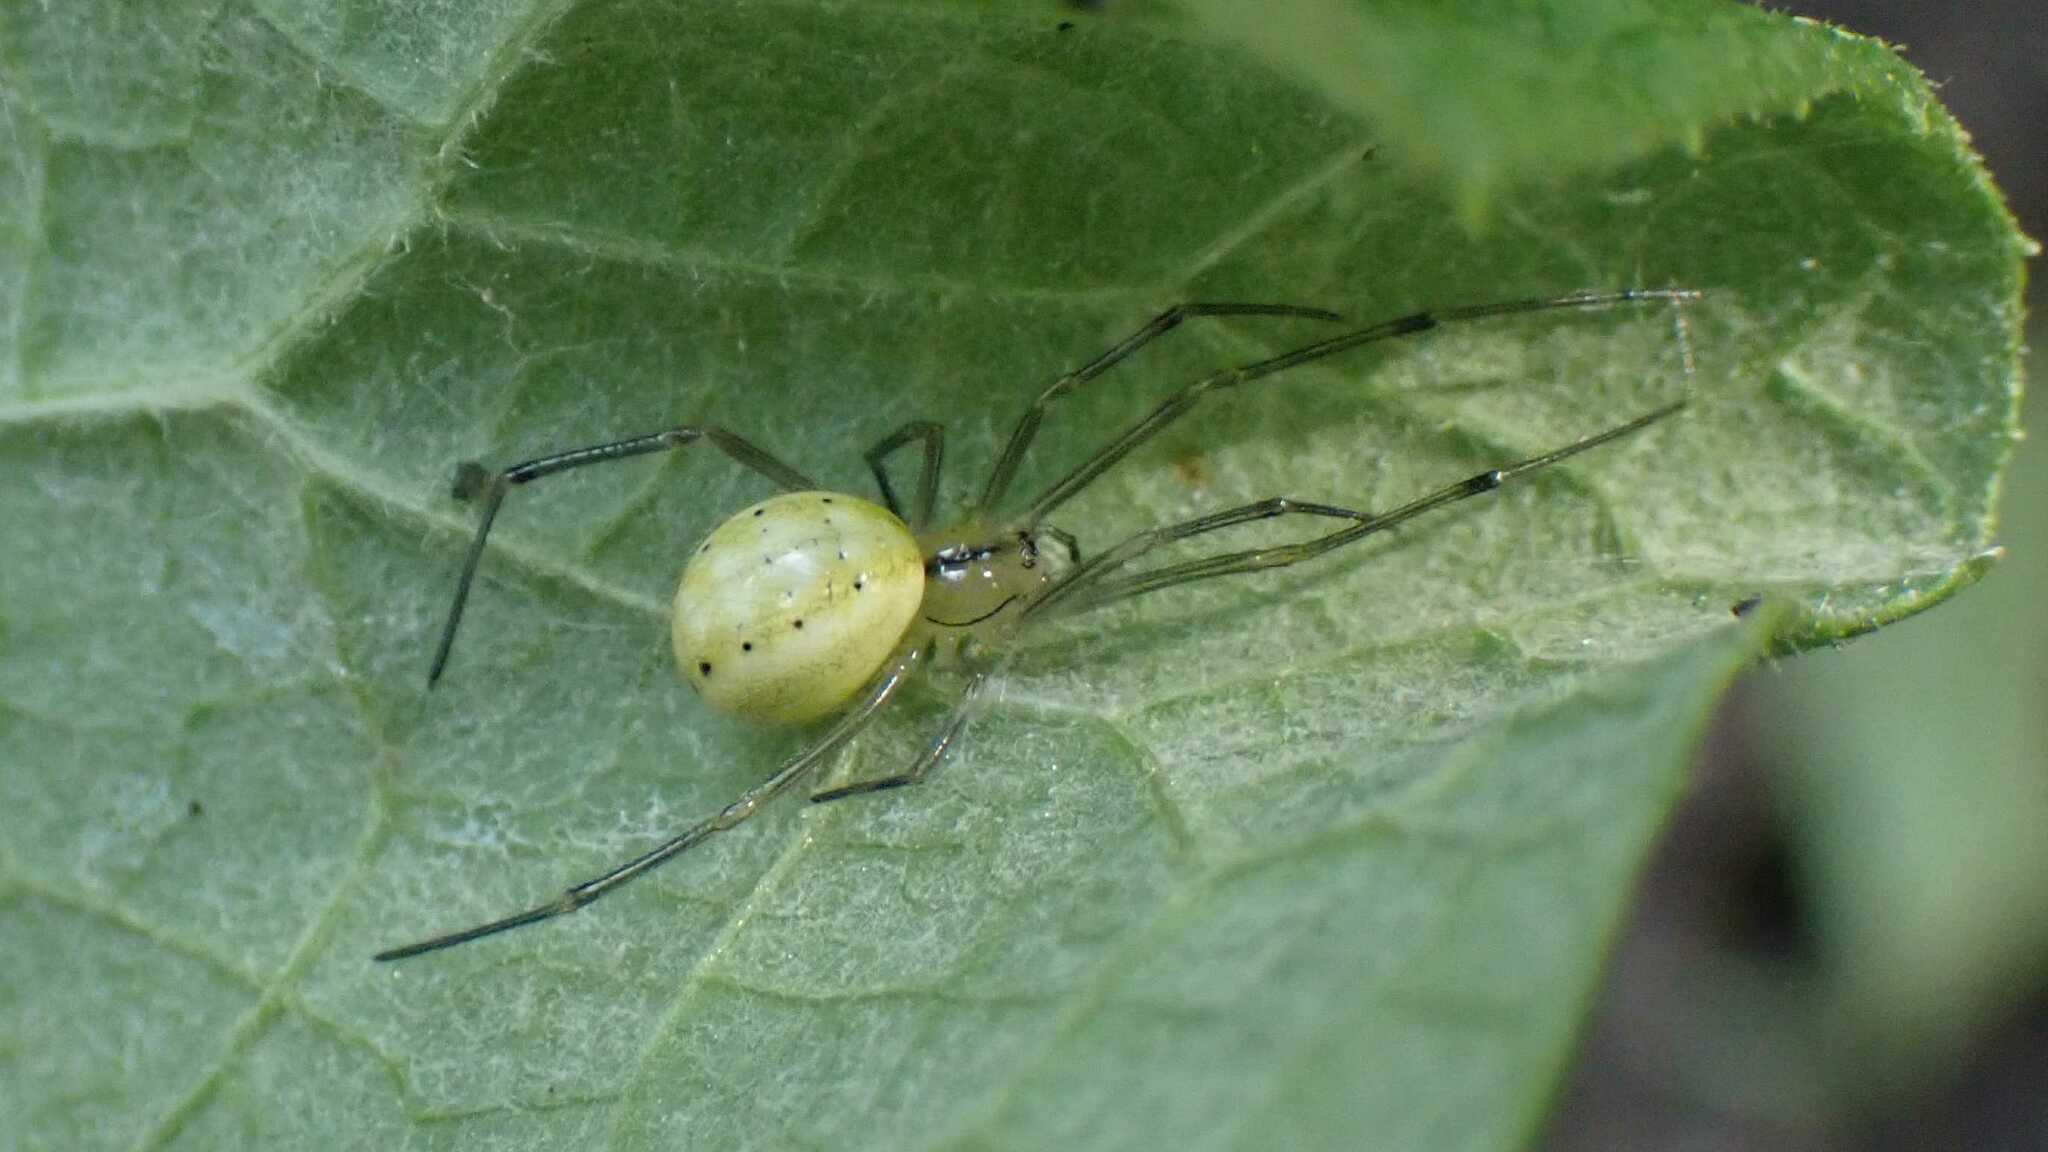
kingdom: Animalia
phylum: Arthropoda
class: Arachnida
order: Araneae
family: Theridiidae
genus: Enoplognatha
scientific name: Enoplognatha
